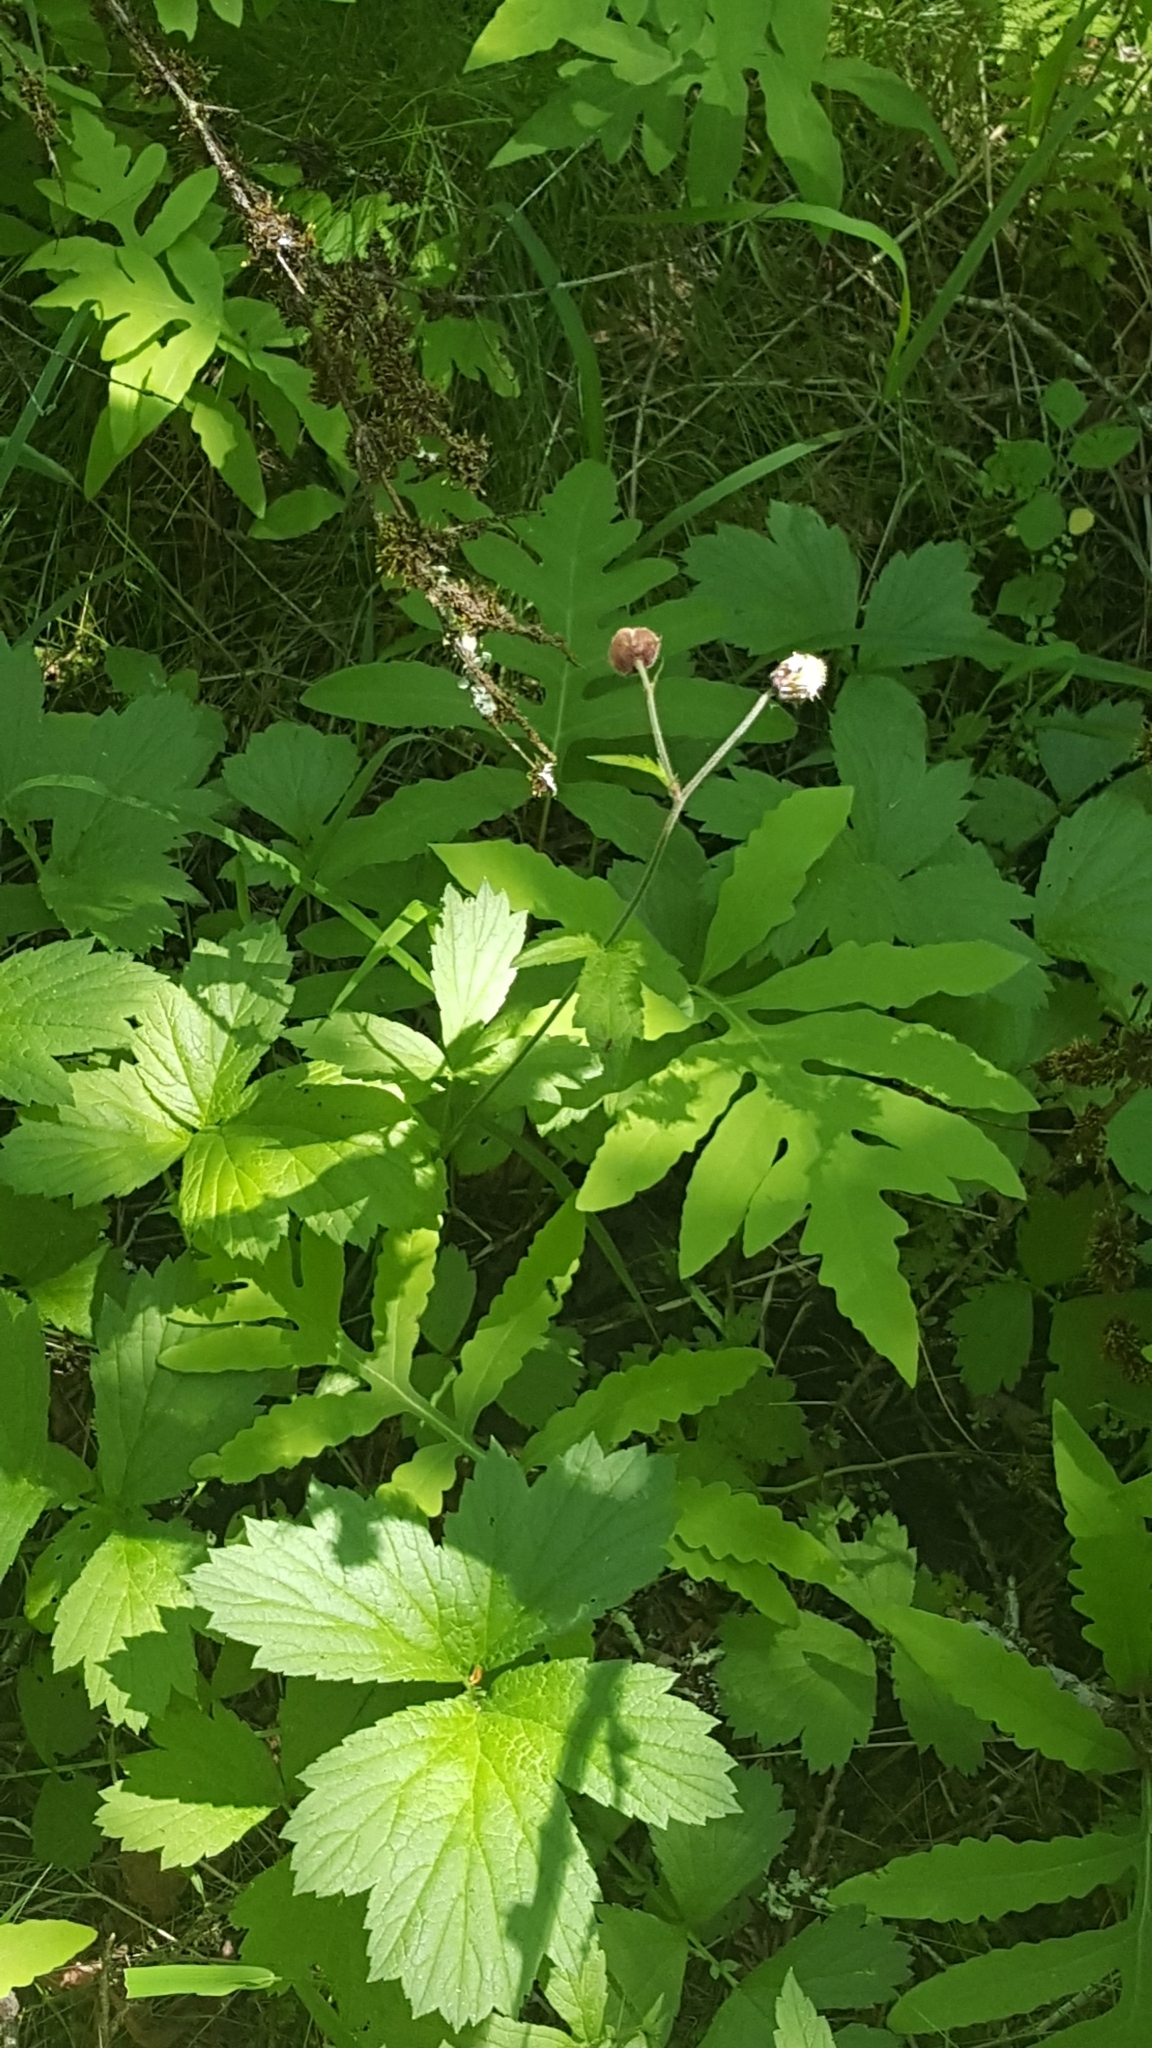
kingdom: Plantae
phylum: Tracheophyta
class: Magnoliopsida
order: Rosales
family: Rosaceae
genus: Geum
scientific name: Geum rivale
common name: Water avens
